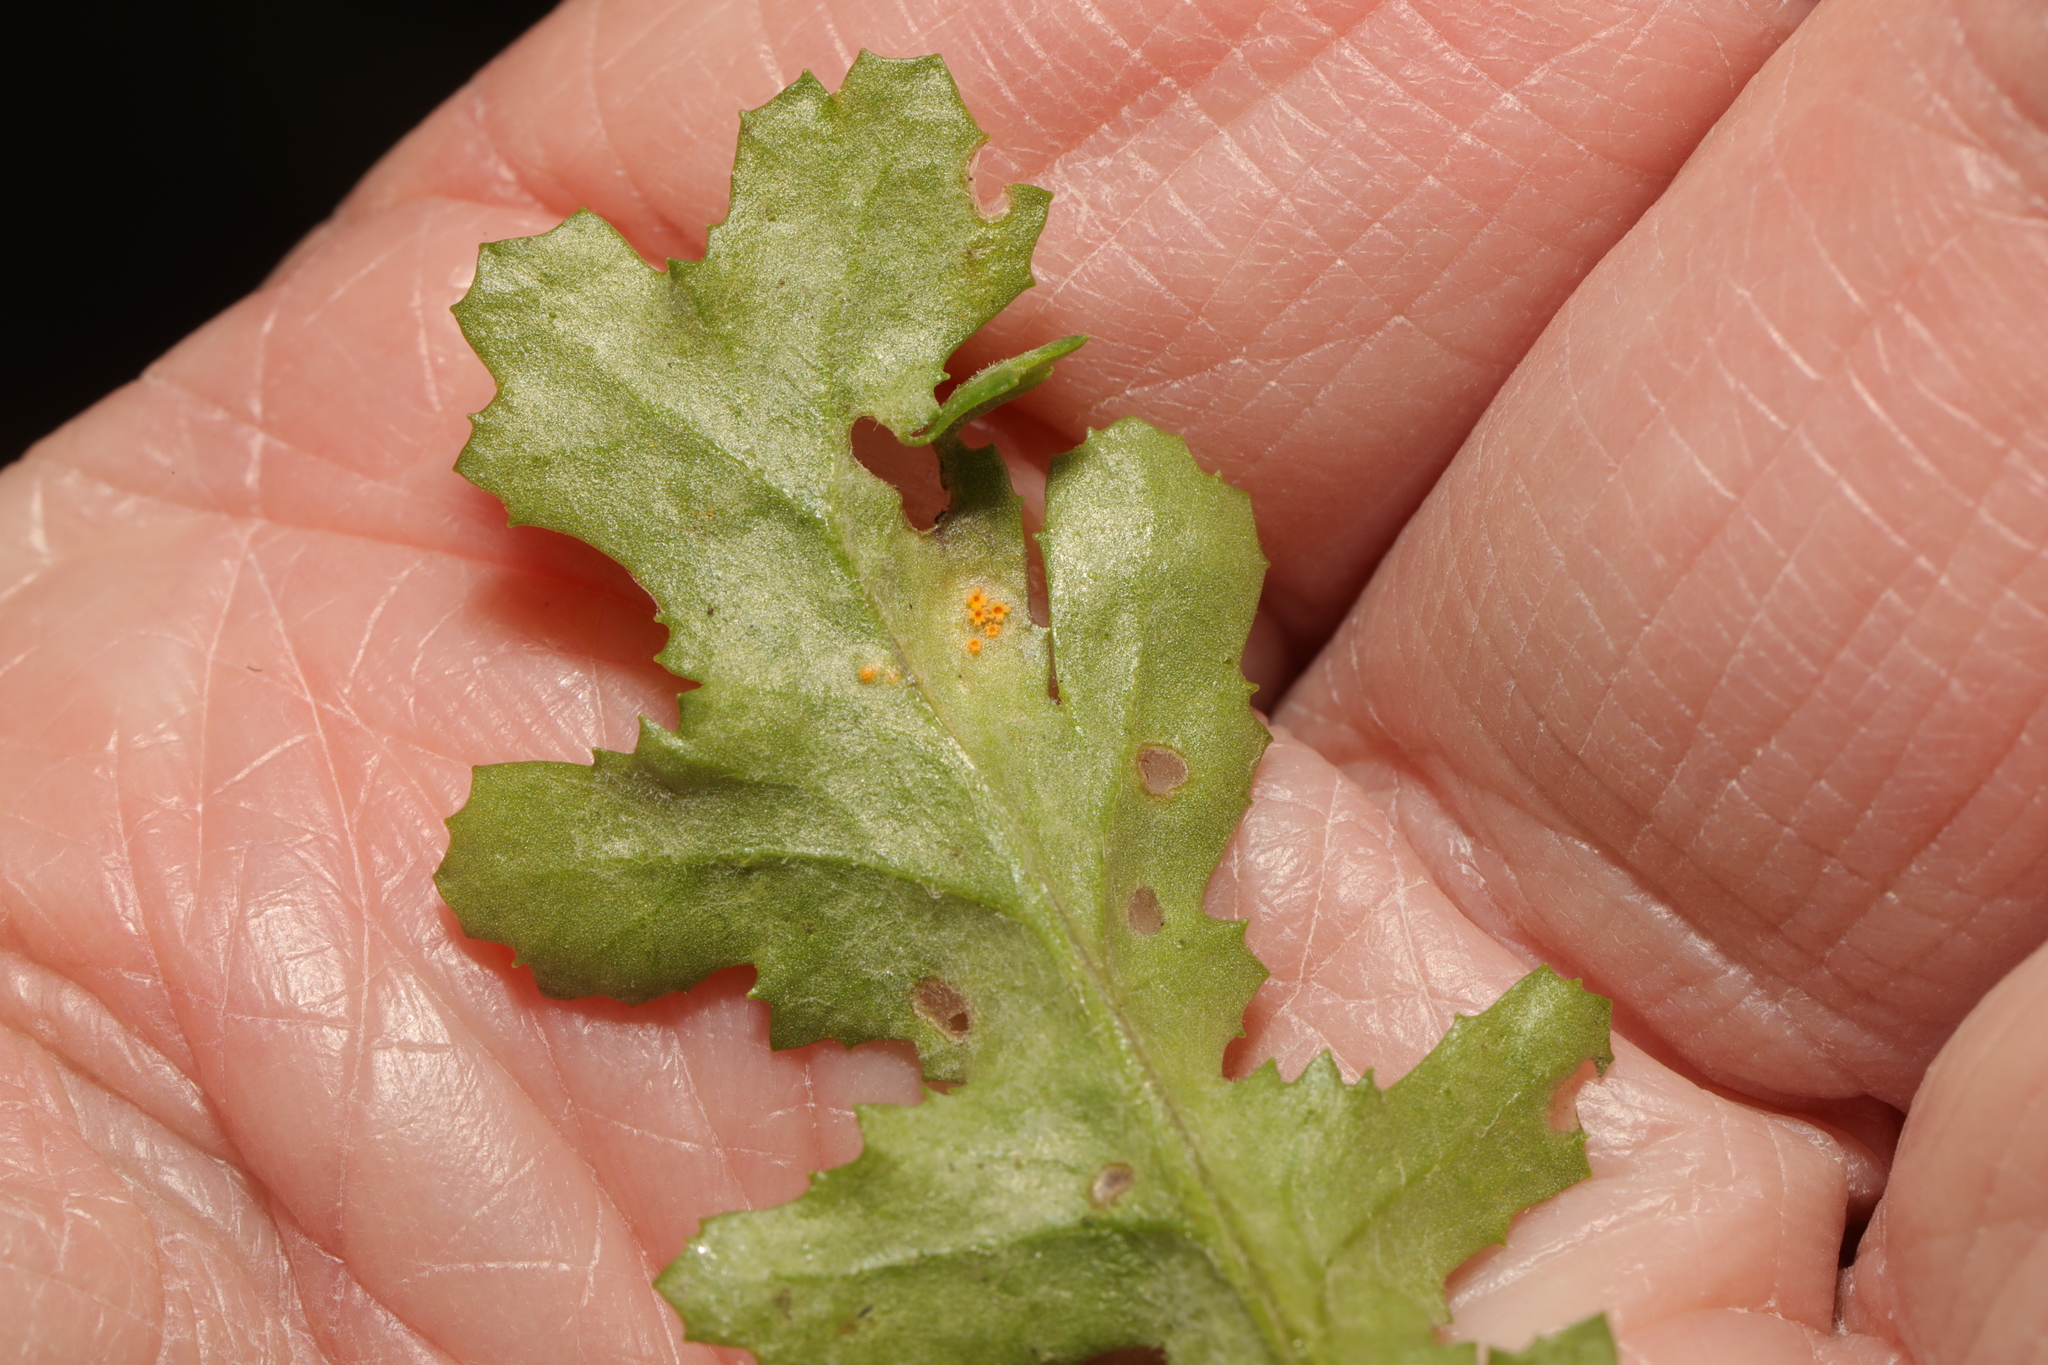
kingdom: Fungi
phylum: Basidiomycota
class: Pucciniomycetes
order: Pucciniales
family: Pucciniaceae
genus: Puccinia
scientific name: Puccinia lagenophorae
